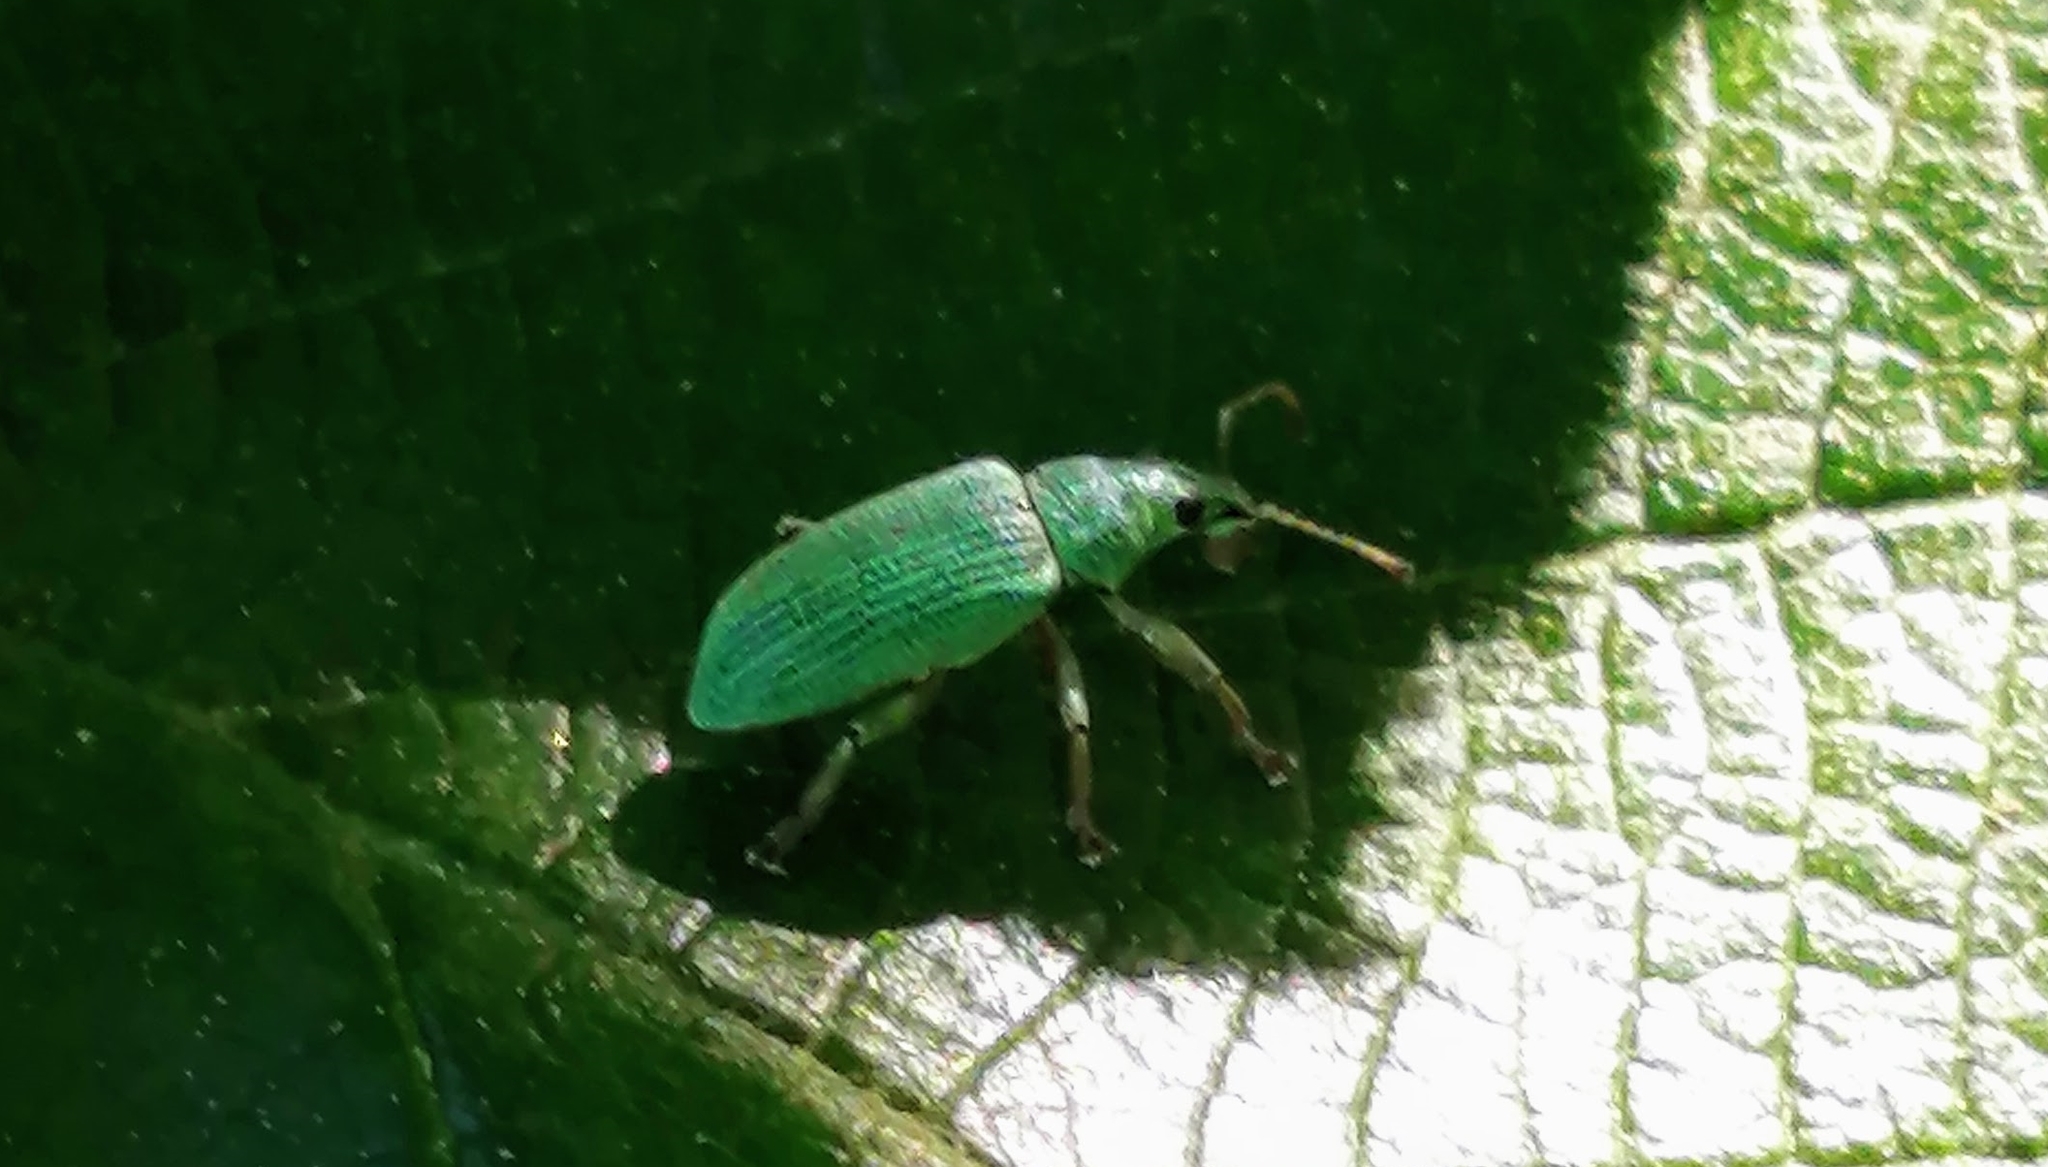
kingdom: Animalia
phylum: Arthropoda
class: Insecta
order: Coleoptera
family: Curculionidae
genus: Polydrusus
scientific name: Polydrusus formosus
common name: Weevil
